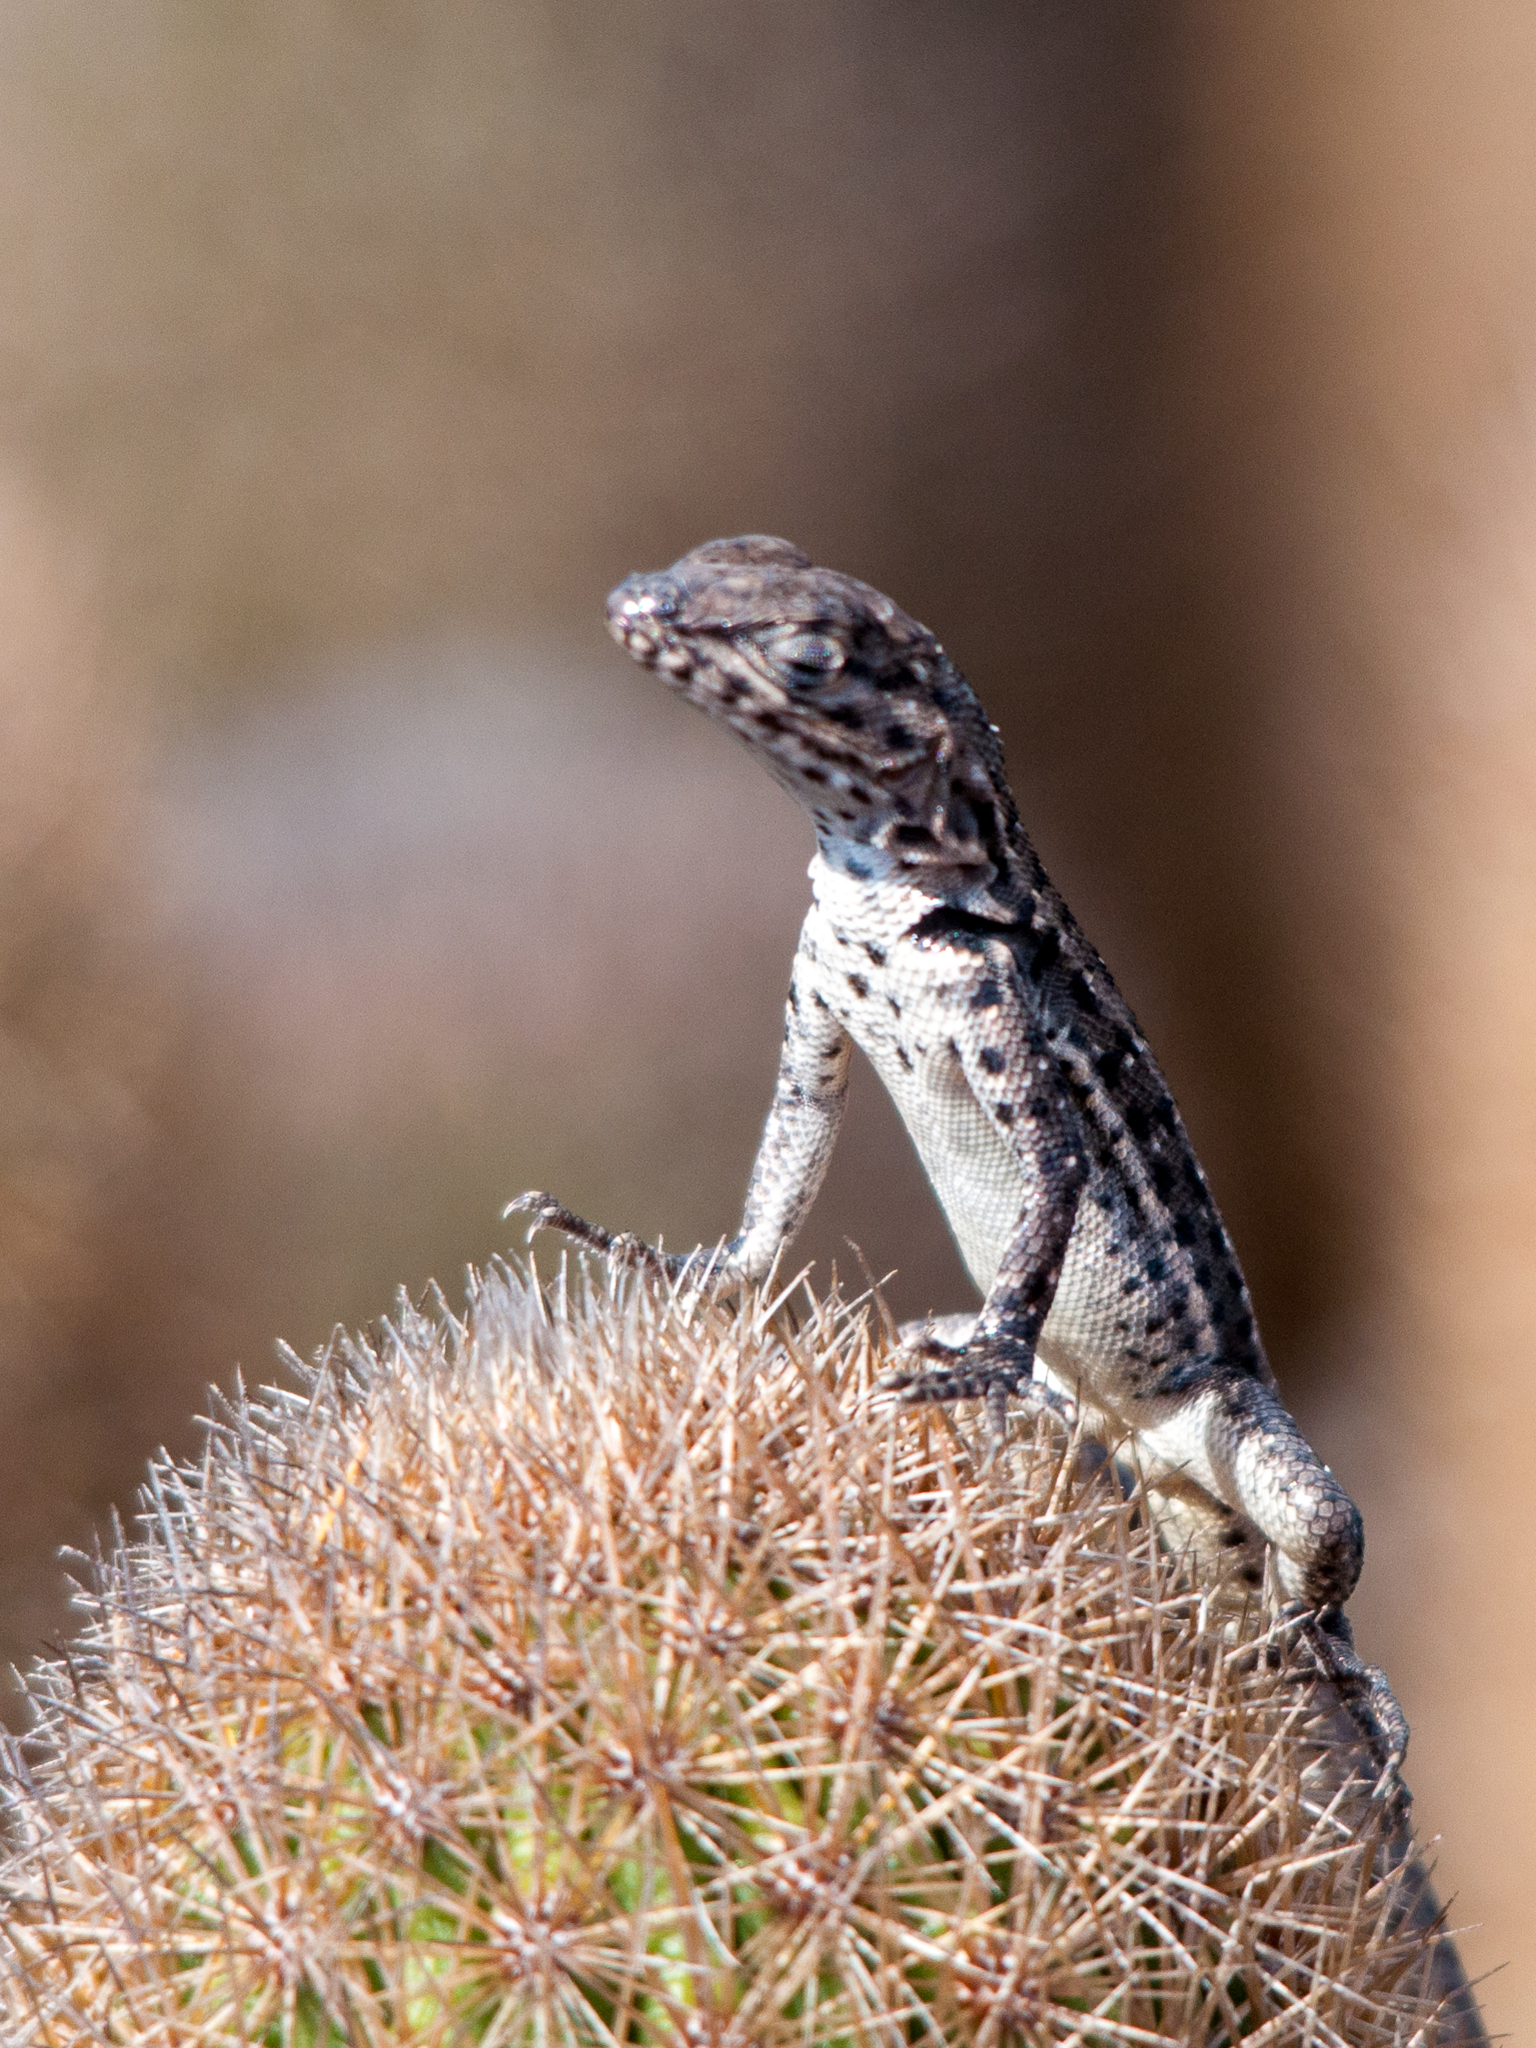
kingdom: Animalia
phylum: Chordata
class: Squamata
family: Tropiduridae
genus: Microlophus
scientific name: Microlophus grayii
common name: Floreana lava lizard
